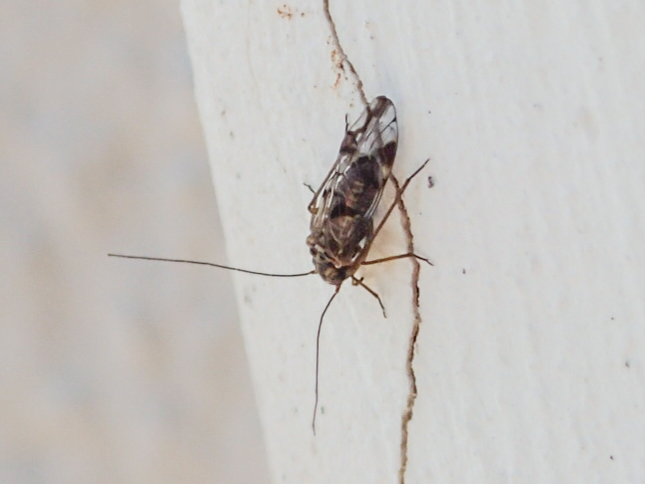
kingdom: Animalia
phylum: Arthropoda
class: Insecta
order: Psocodea
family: Psocidae
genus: Neopsocus
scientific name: Neopsocus rhenanus
